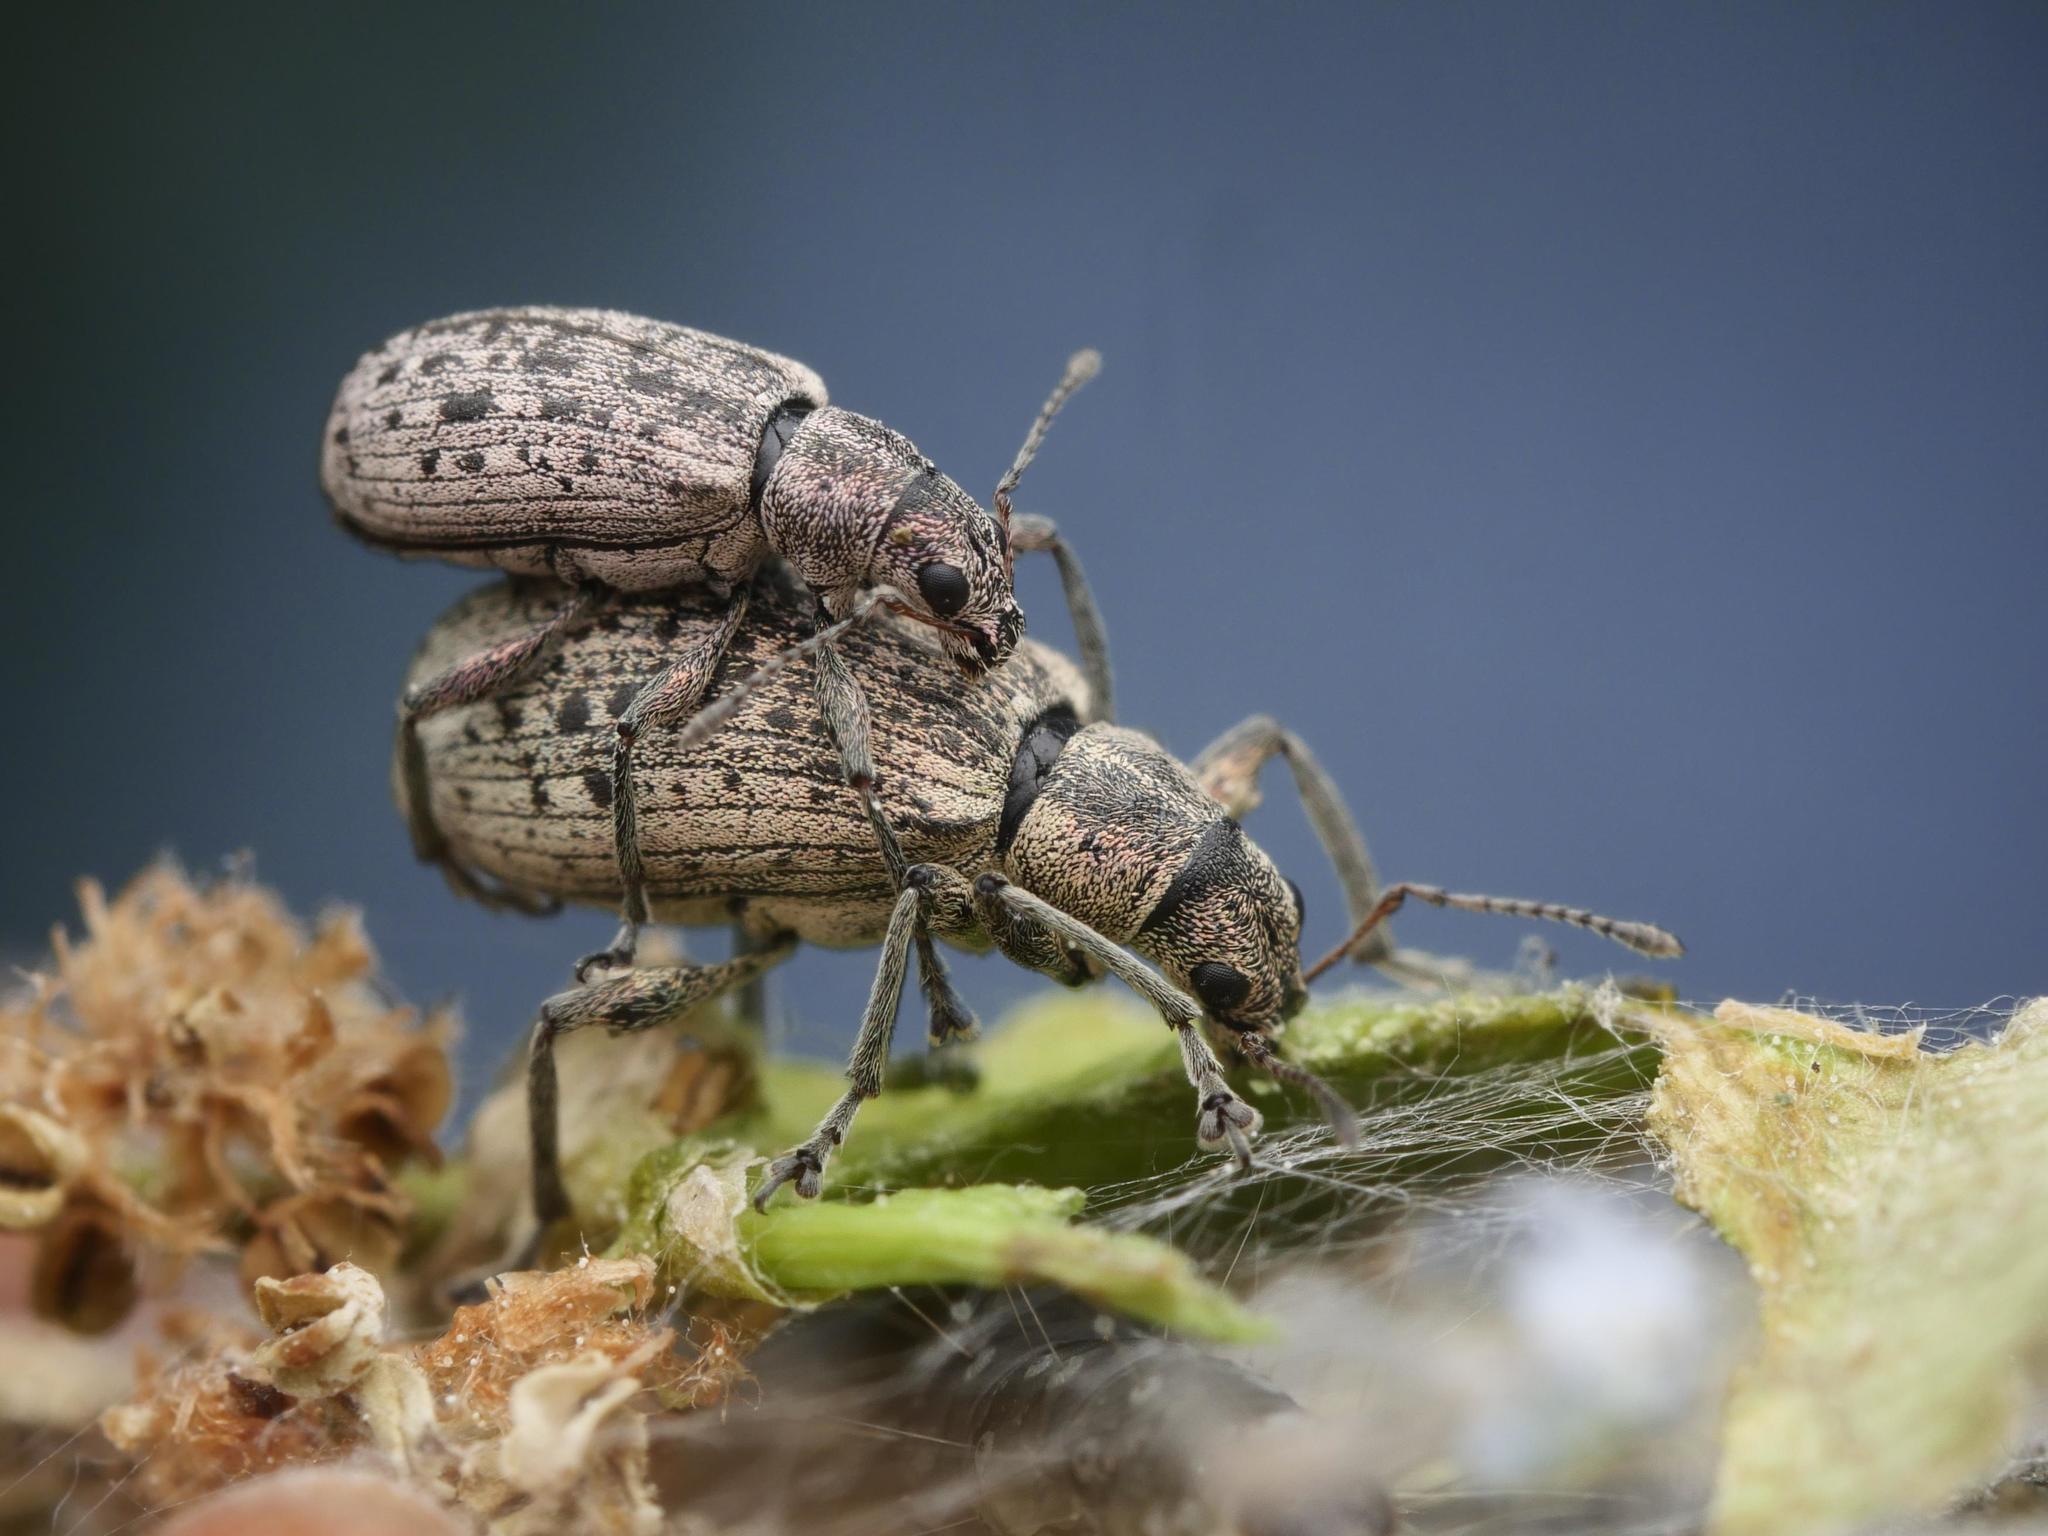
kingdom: Animalia
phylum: Arthropoda
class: Insecta
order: Coleoptera
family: Curculionidae
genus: Polydrusus
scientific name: Polydrusus cervinus
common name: Weevil
